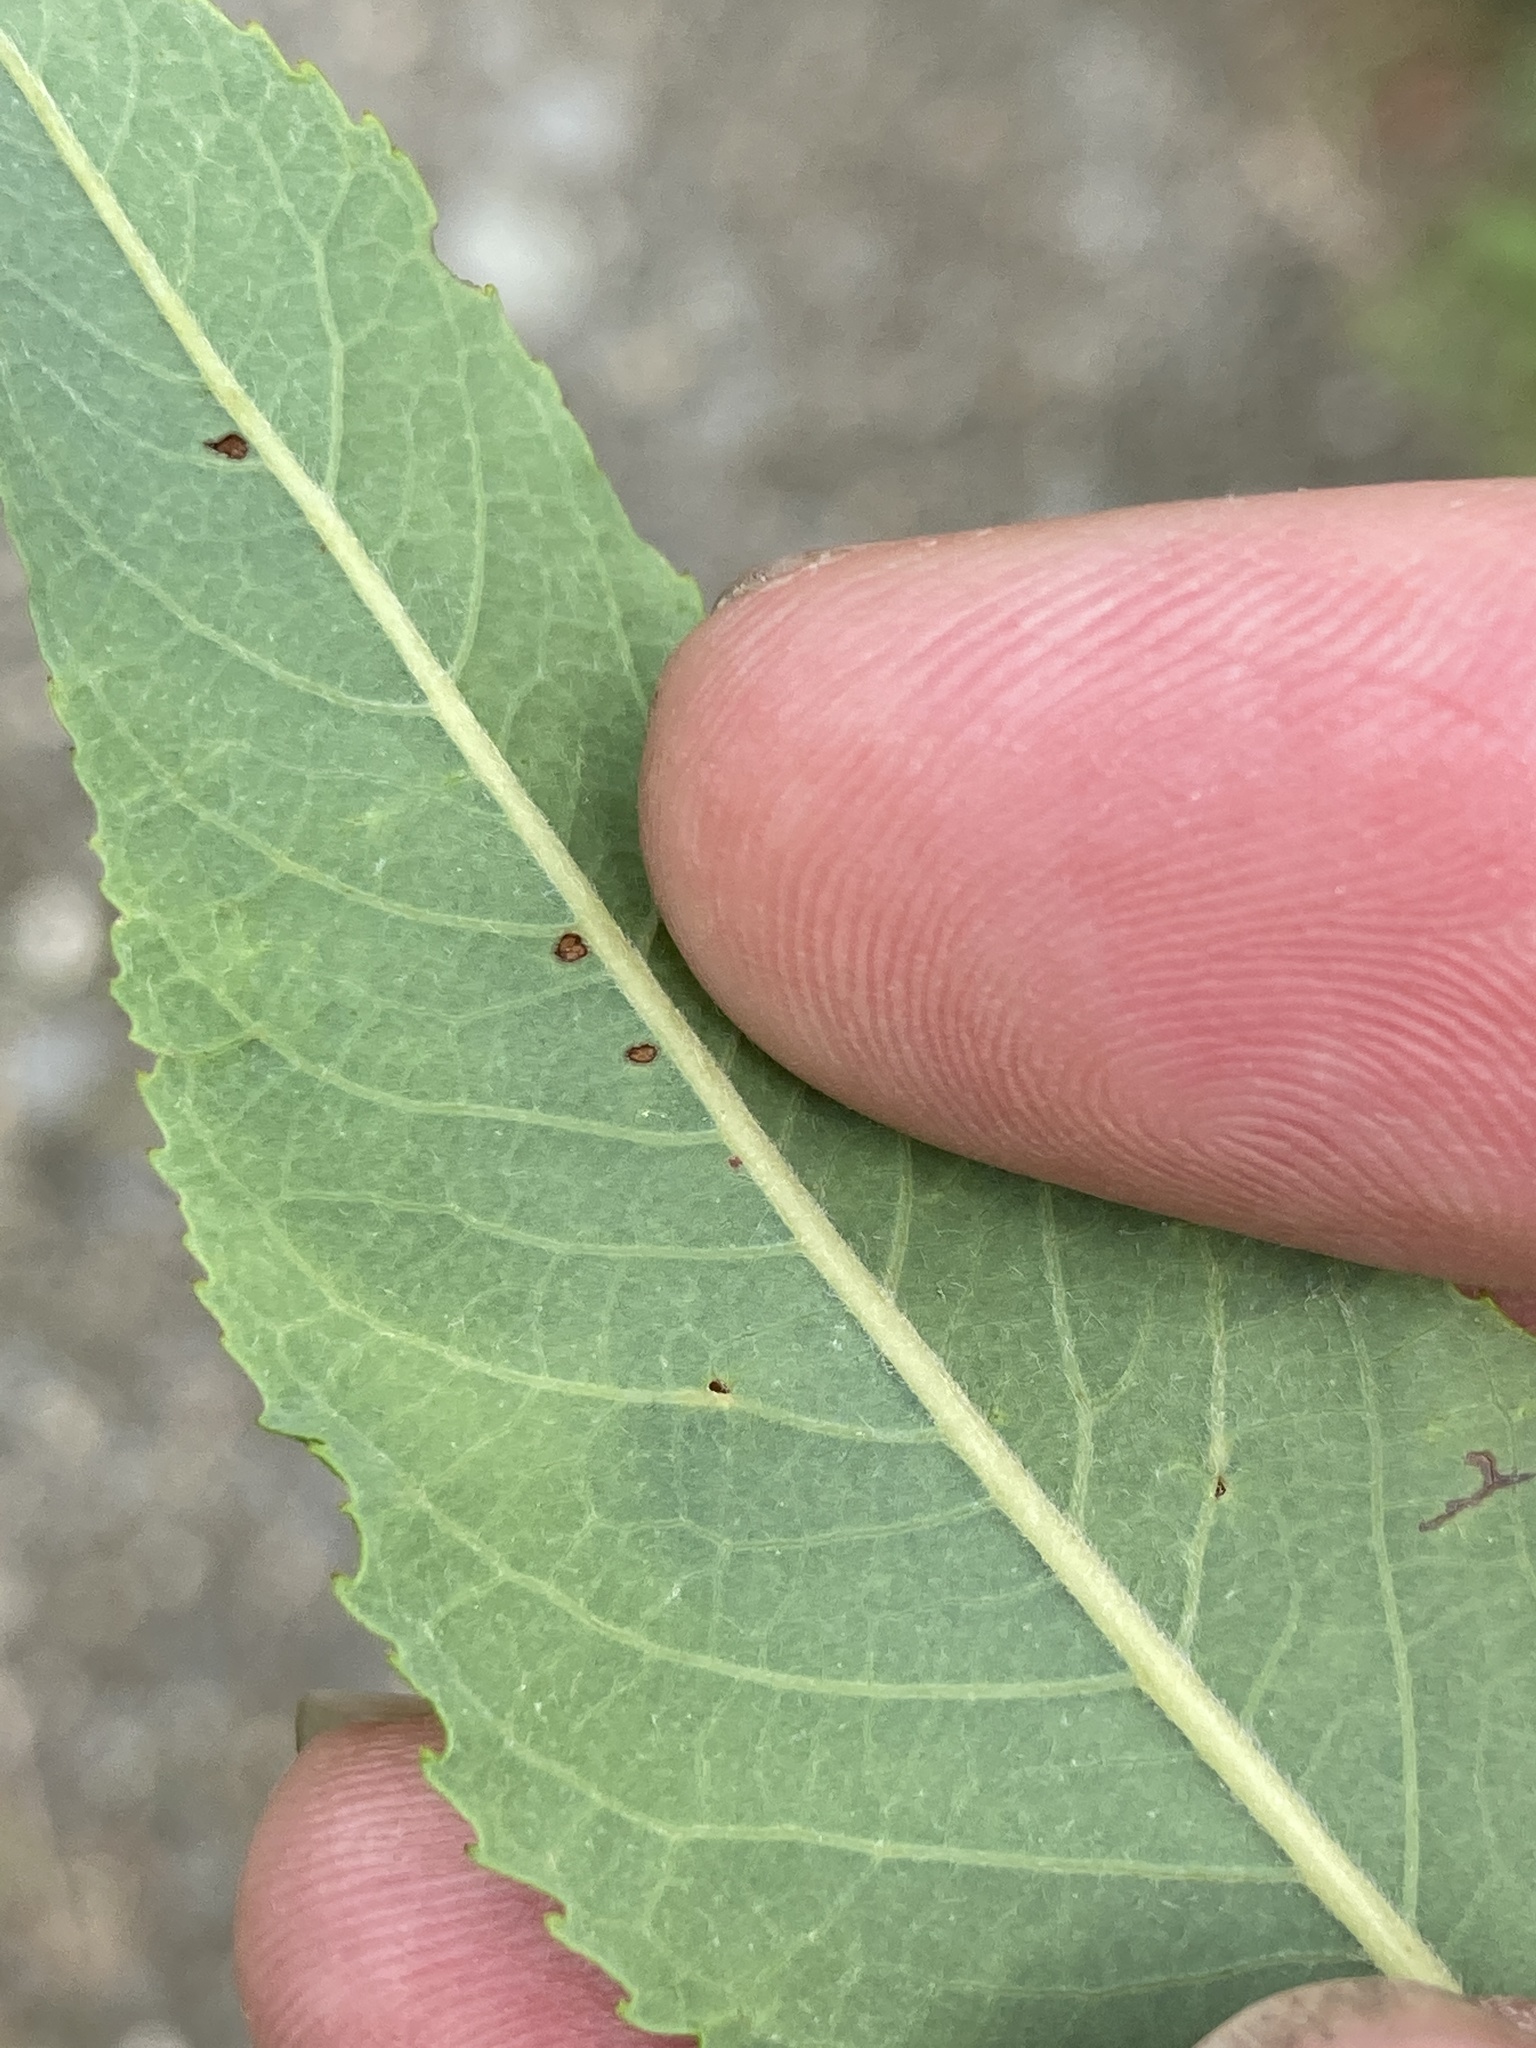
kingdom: Plantae
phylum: Tracheophyta
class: Magnoliopsida
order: Malpighiales
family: Salicaceae
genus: Salix
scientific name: Salix eriocephala
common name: Heart-leaved willow
